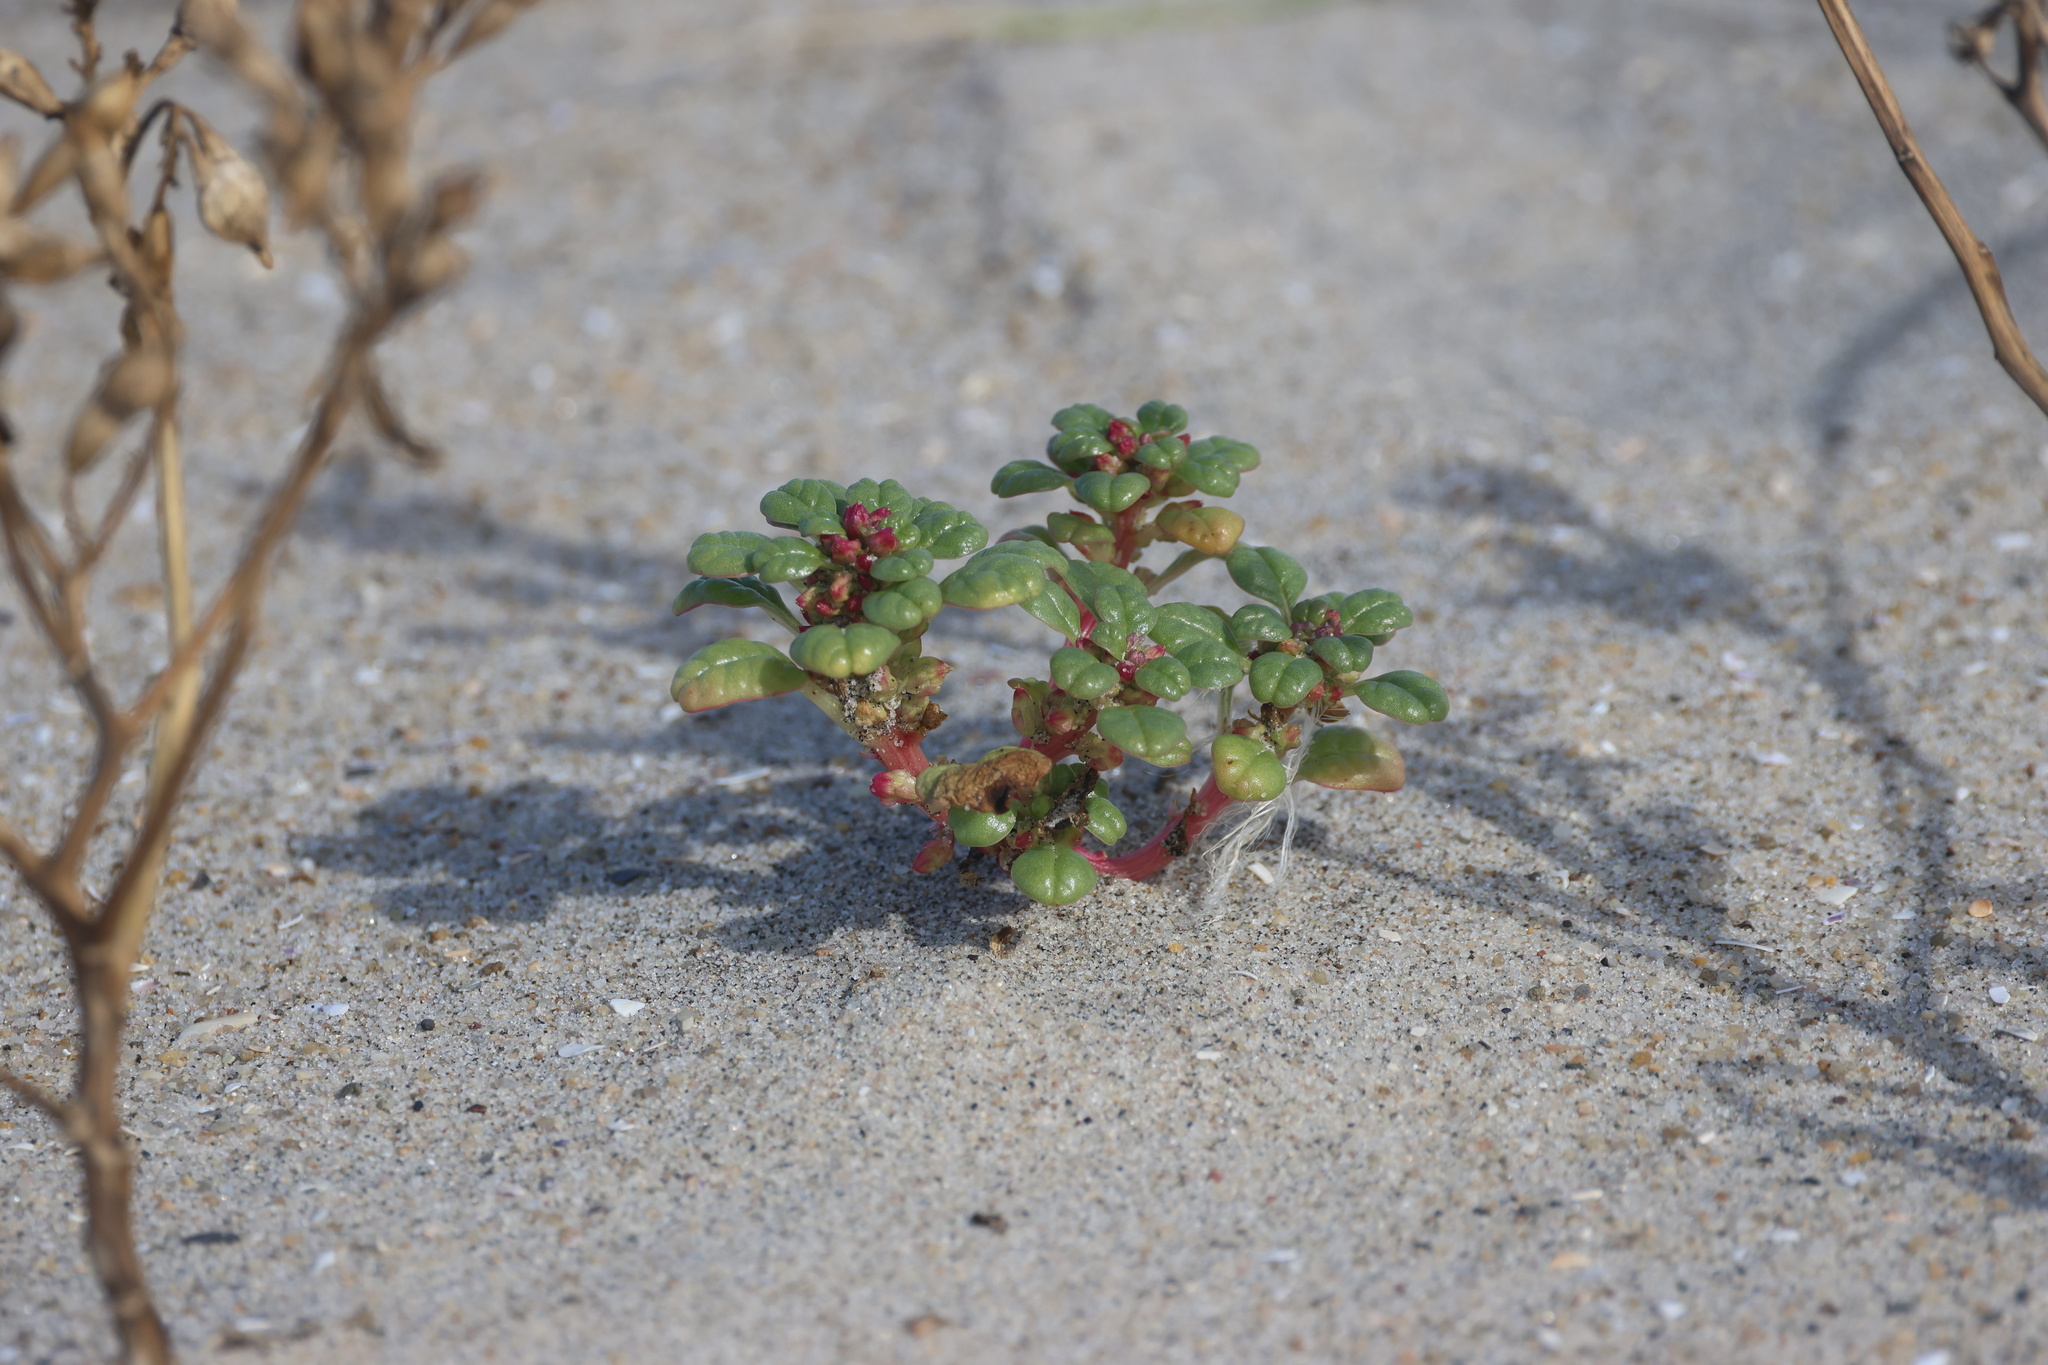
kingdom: Plantae
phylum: Tracheophyta
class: Magnoliopsida
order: Caryophyllales
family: Amaranthaceae
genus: Amaranthus
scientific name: Amaranthus pumilus
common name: Coast amaranth
